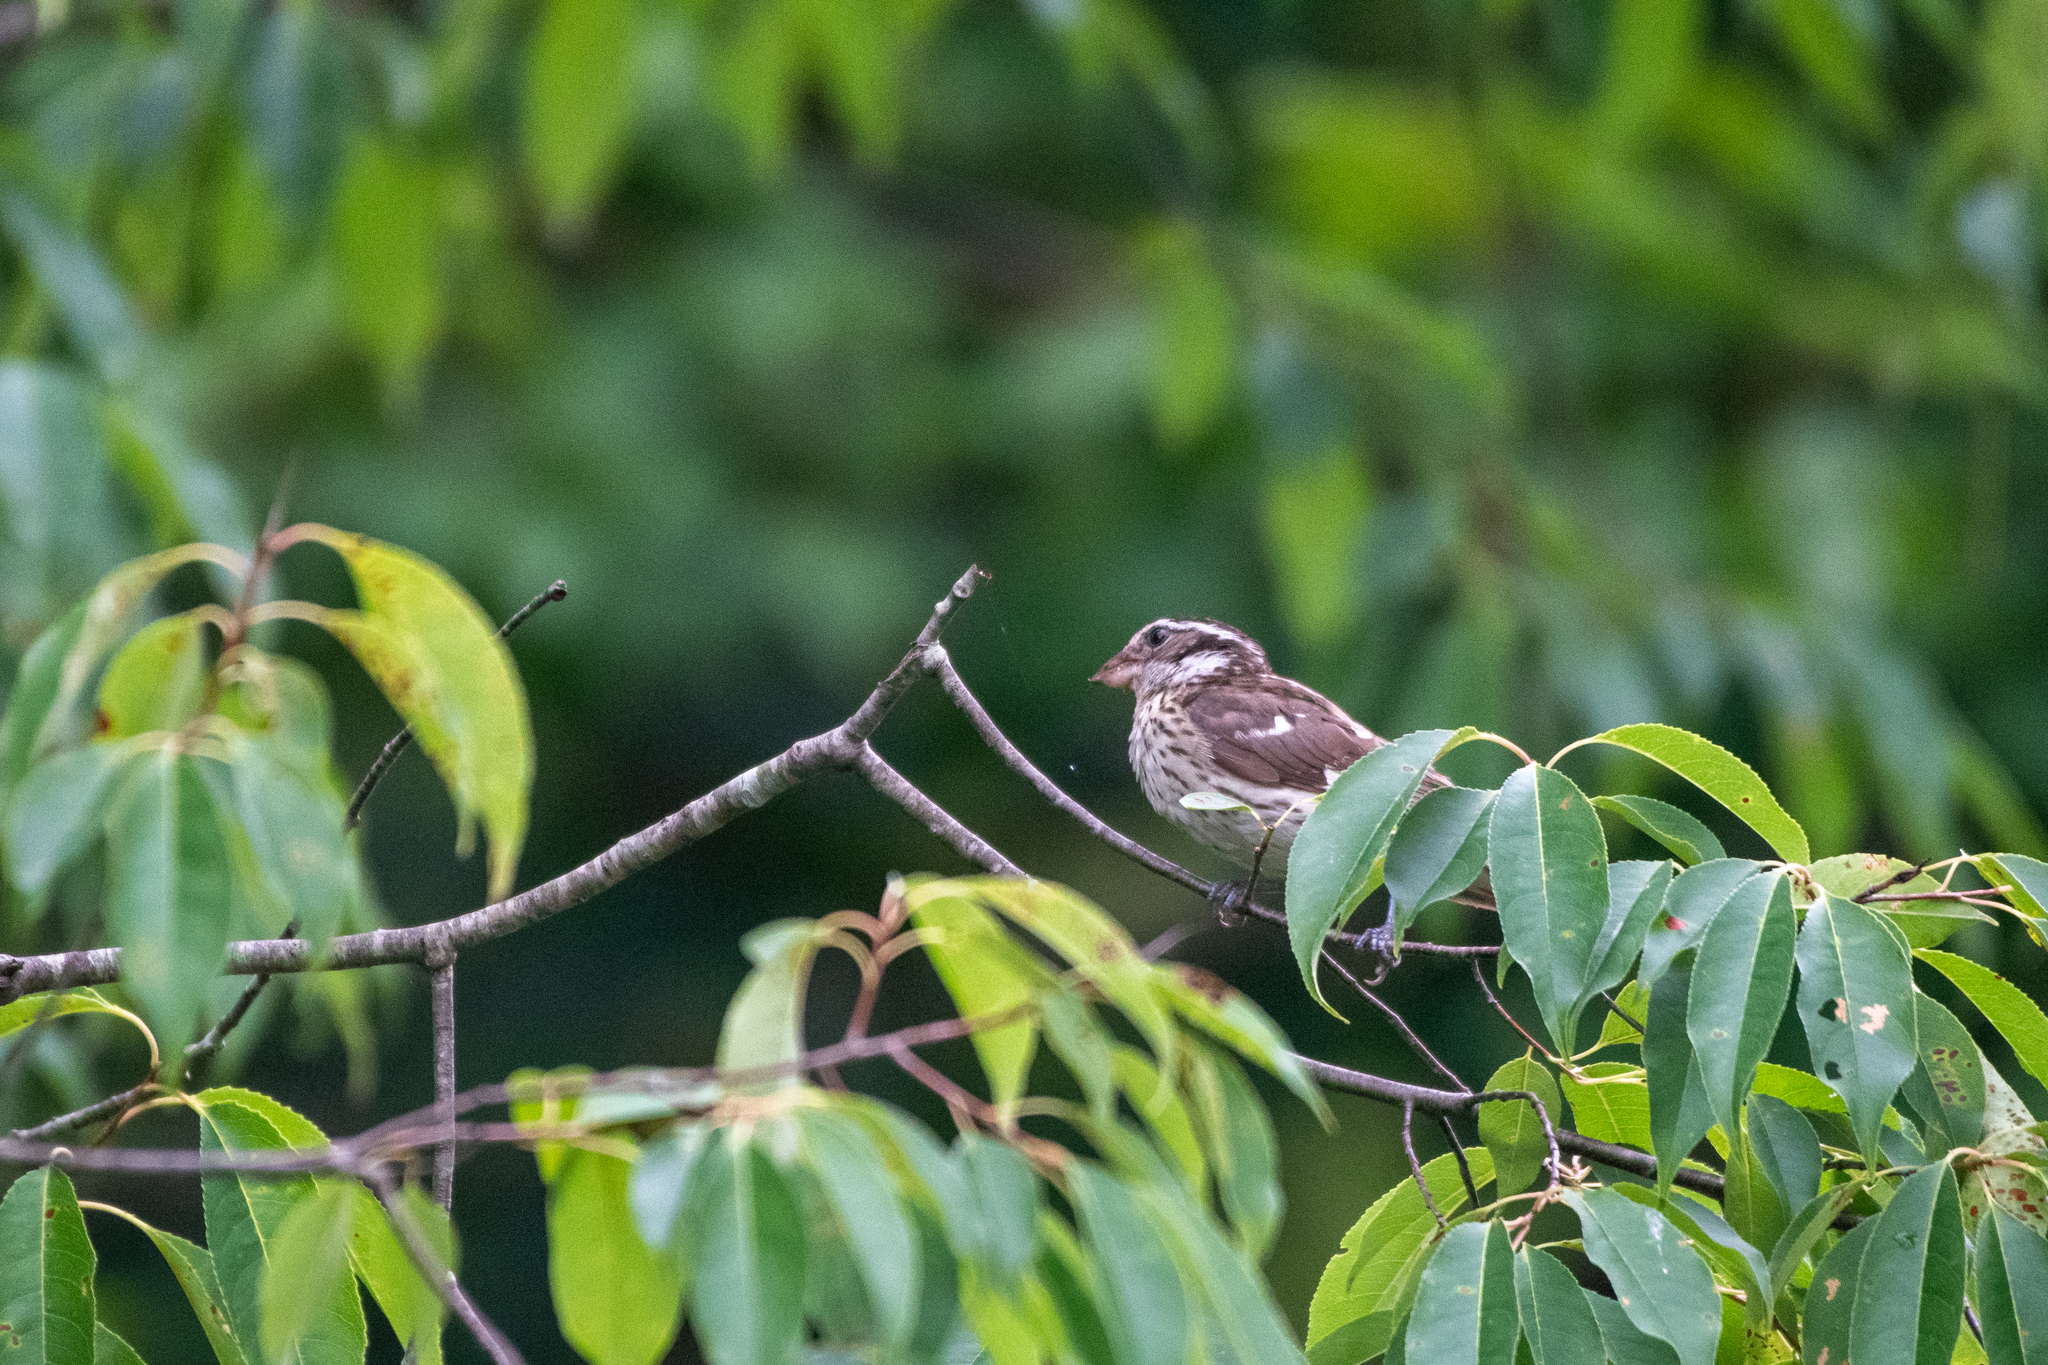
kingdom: Animalia
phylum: Chordata
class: Aves
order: Passeriformes
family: Cardinalidae
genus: Pheucticus
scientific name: Pheucticus ludovicianus
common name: Rose-breasted grosbeak
